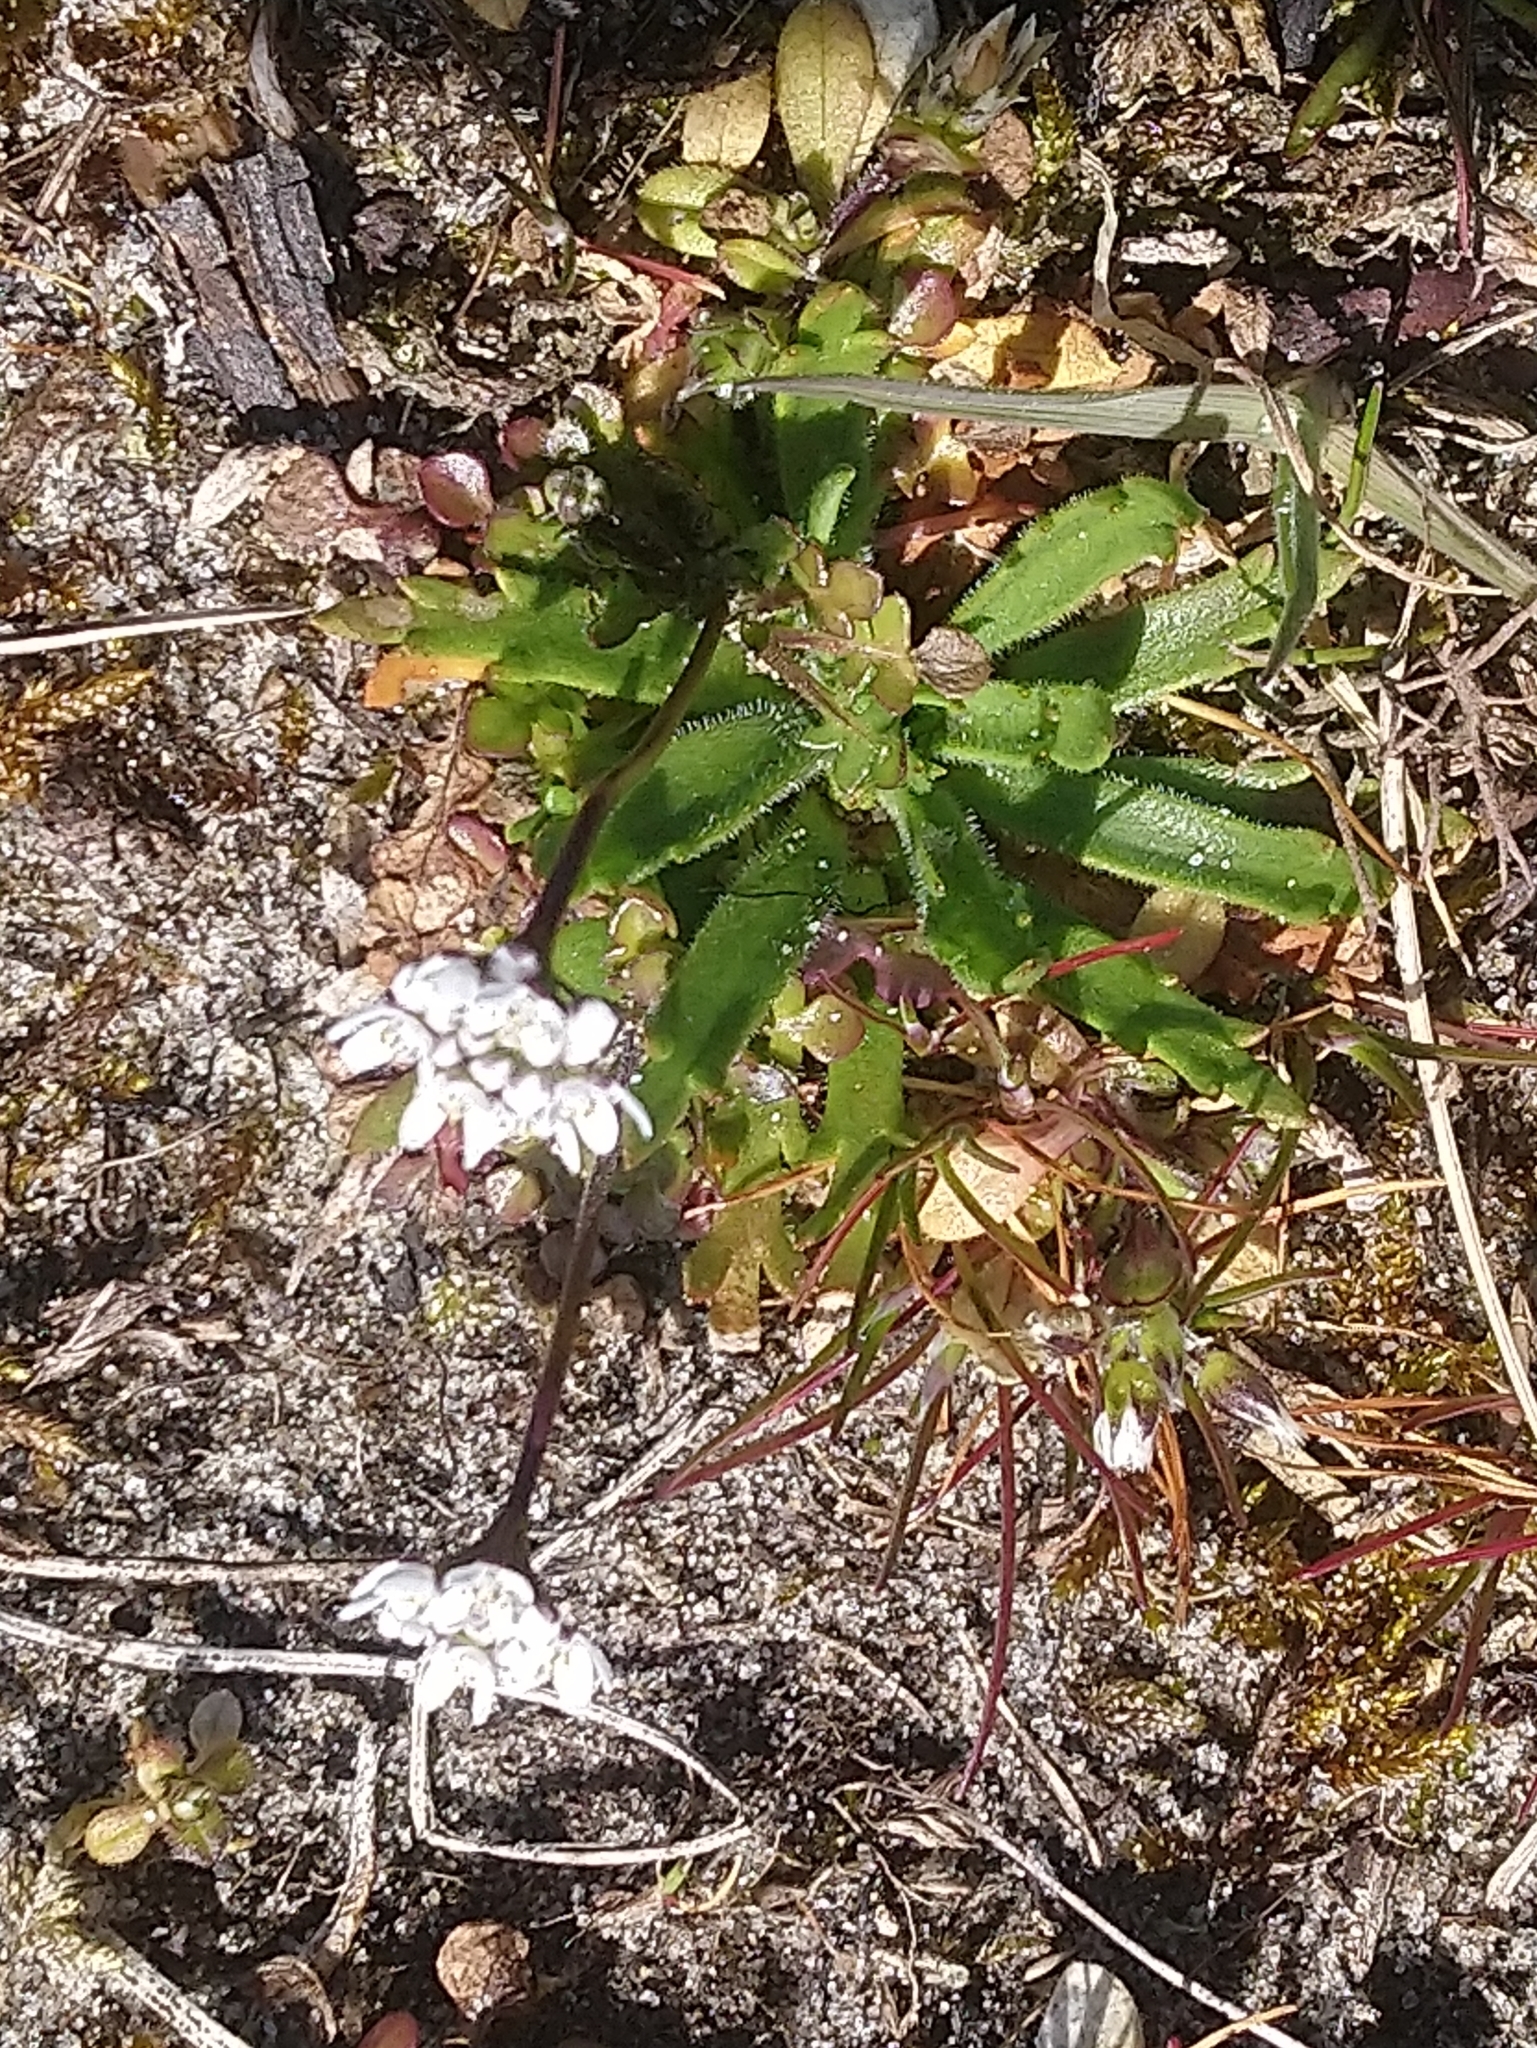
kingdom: Plantae
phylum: Tracheophyta
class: Magnoliopsida
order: Brassicales
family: Brassicaceae
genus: Teesdalia
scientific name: Teesdalia nudicaulis
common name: Shepherd's cress
